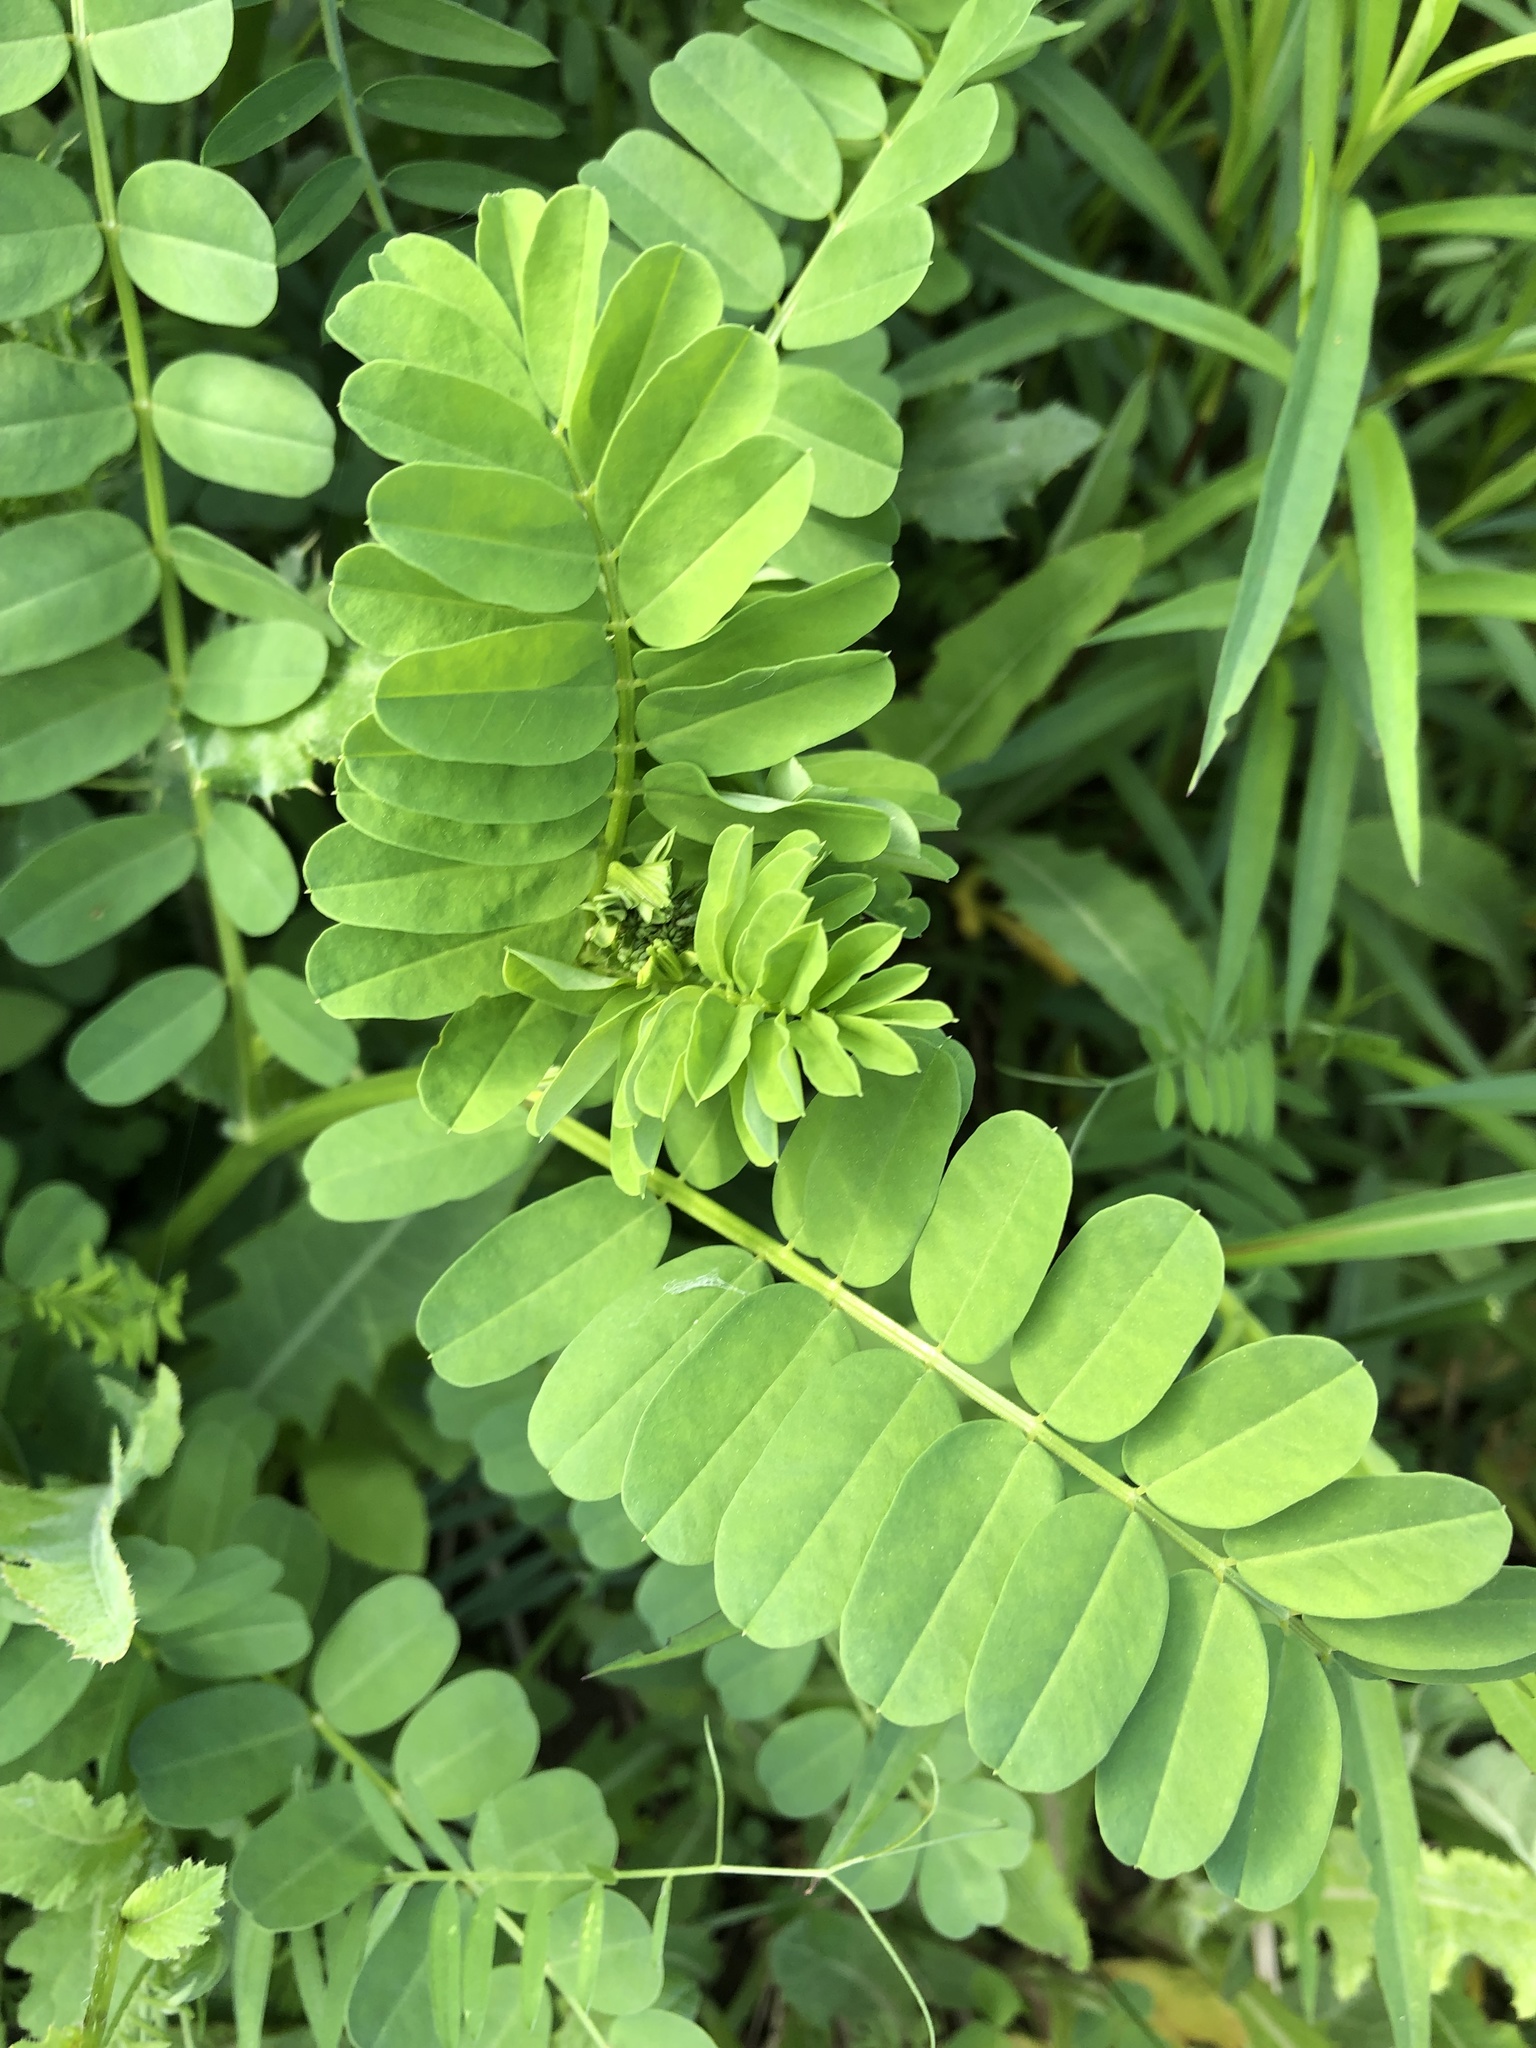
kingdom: Plantae
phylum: Tracheophyta
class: Magnoliopsida
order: Fabales
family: Fabaceae
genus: Coronilla
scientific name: Coronilla varia
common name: Crownvetch
